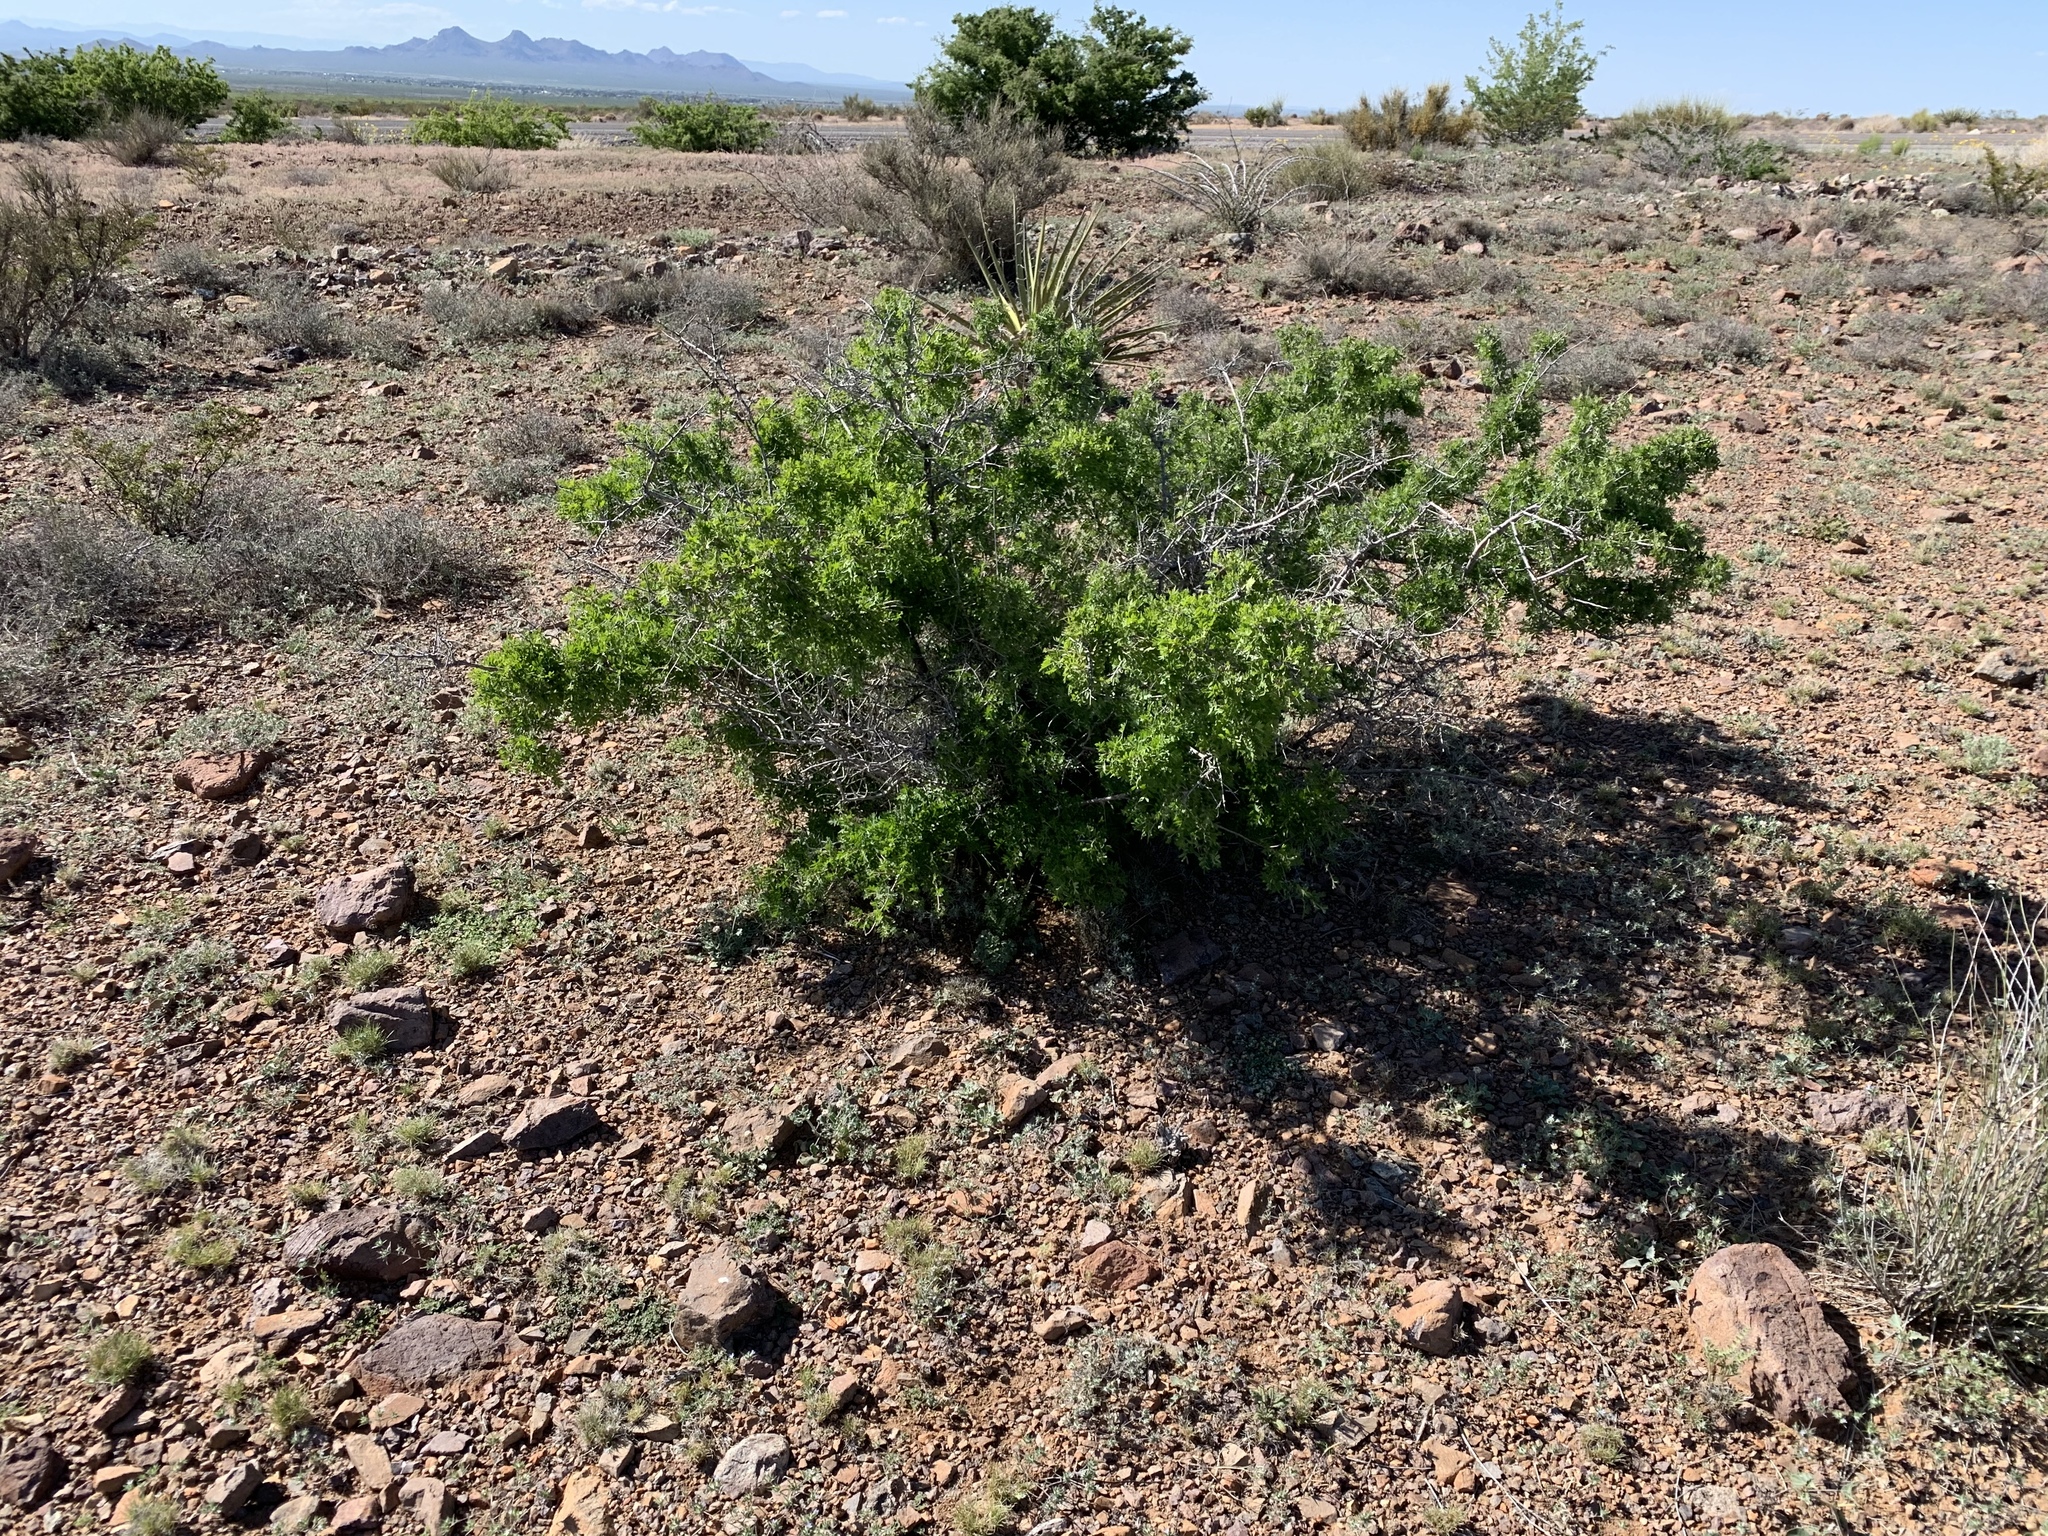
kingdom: Plantae
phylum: Tracheophyta
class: Magnoliopsida
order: Sapindales
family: Anacardiaceae
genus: Rhus
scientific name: Rhus microphylla
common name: Desert sumac
